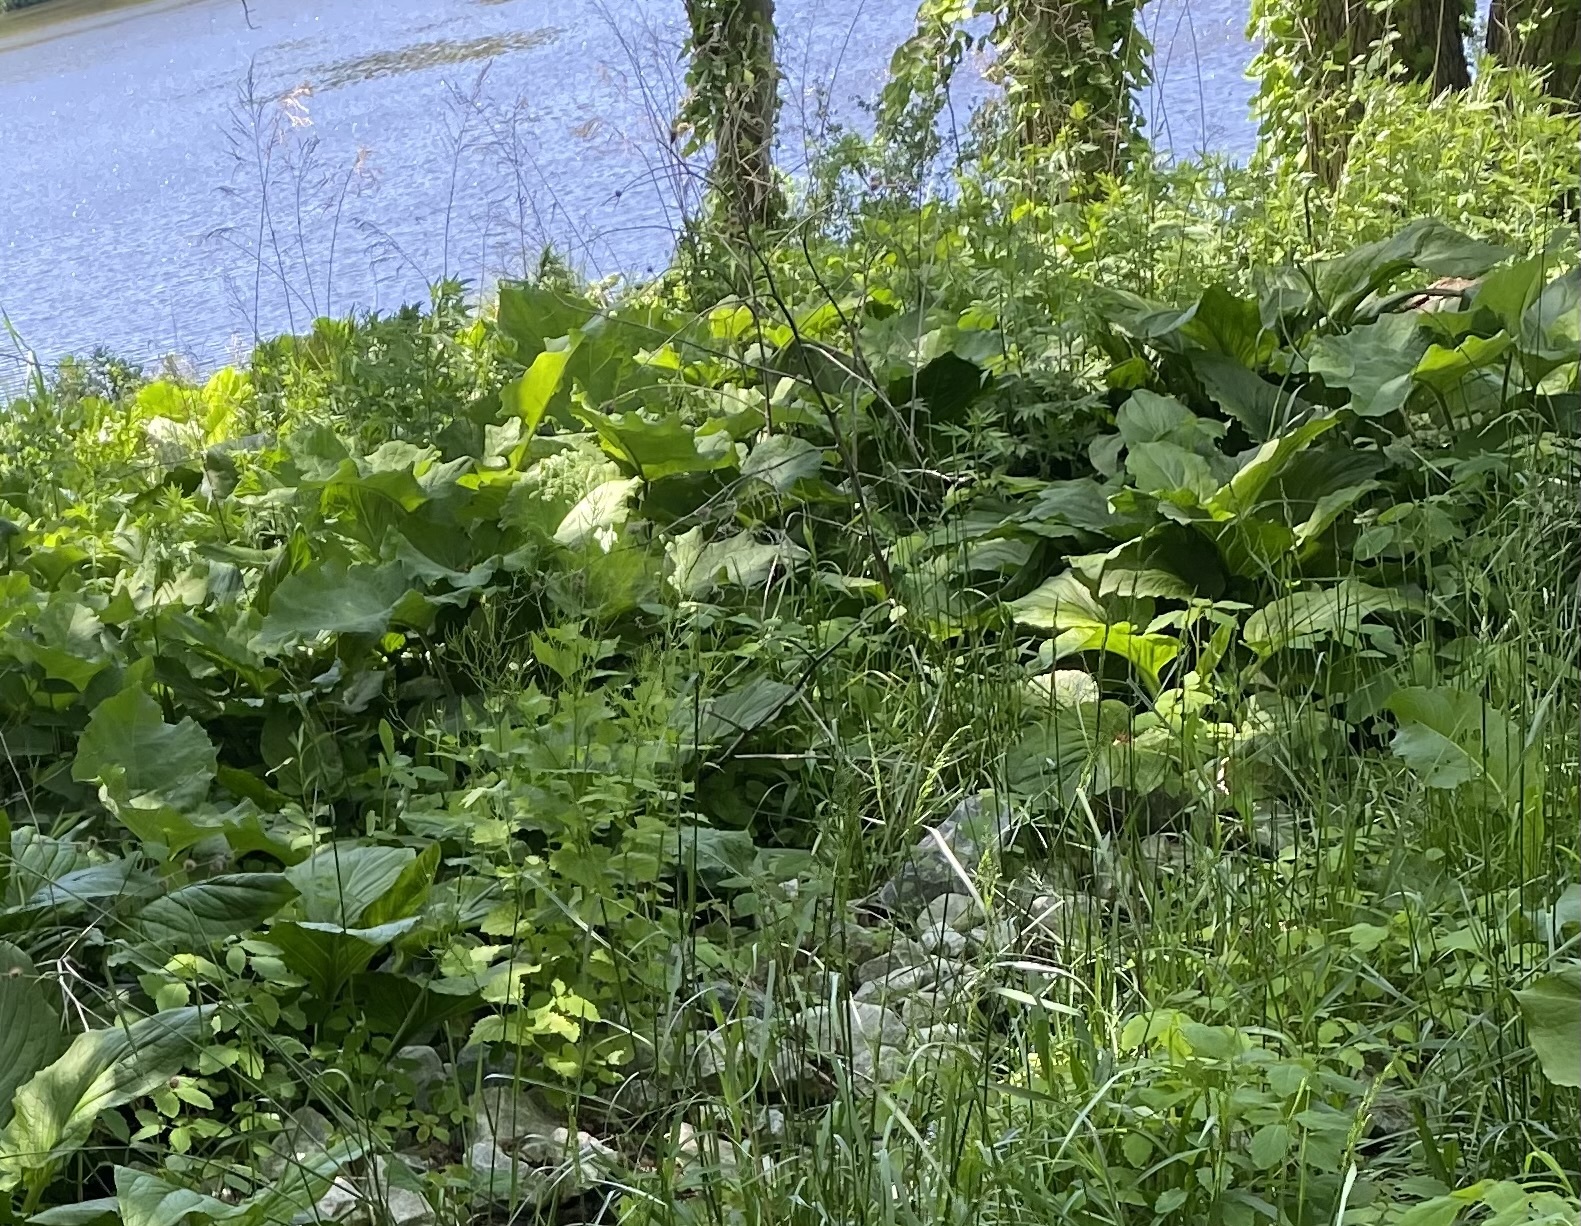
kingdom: Plantae
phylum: Tracheophyta
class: Liliopsida
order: Alismatales
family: Araceae
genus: Symplocarpus
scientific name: Symplocarpus foetidus
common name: Eastern skunk cabbage
